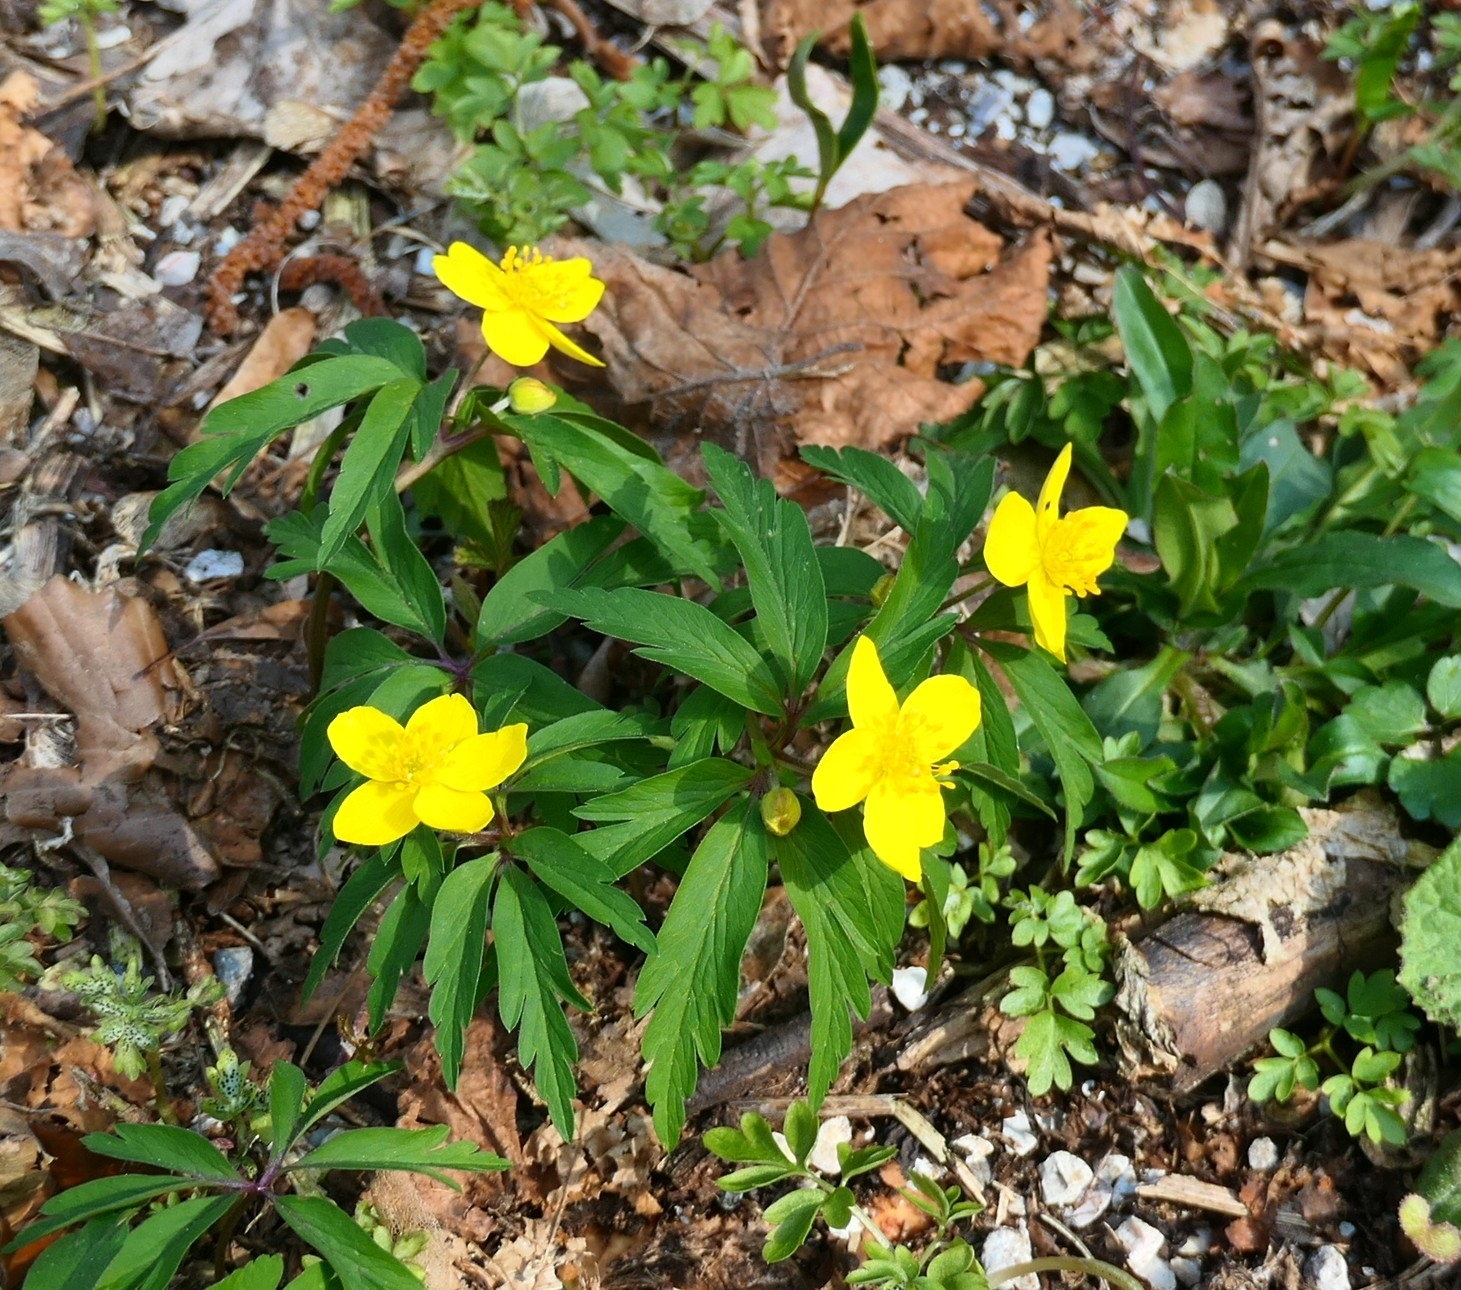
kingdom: Plantae
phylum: Tracheophyta
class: Magnoliopsida
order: Ranunculales
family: Ranunculaceae
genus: Anemone
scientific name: Anemone ranunculoides
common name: Yellow anemone
